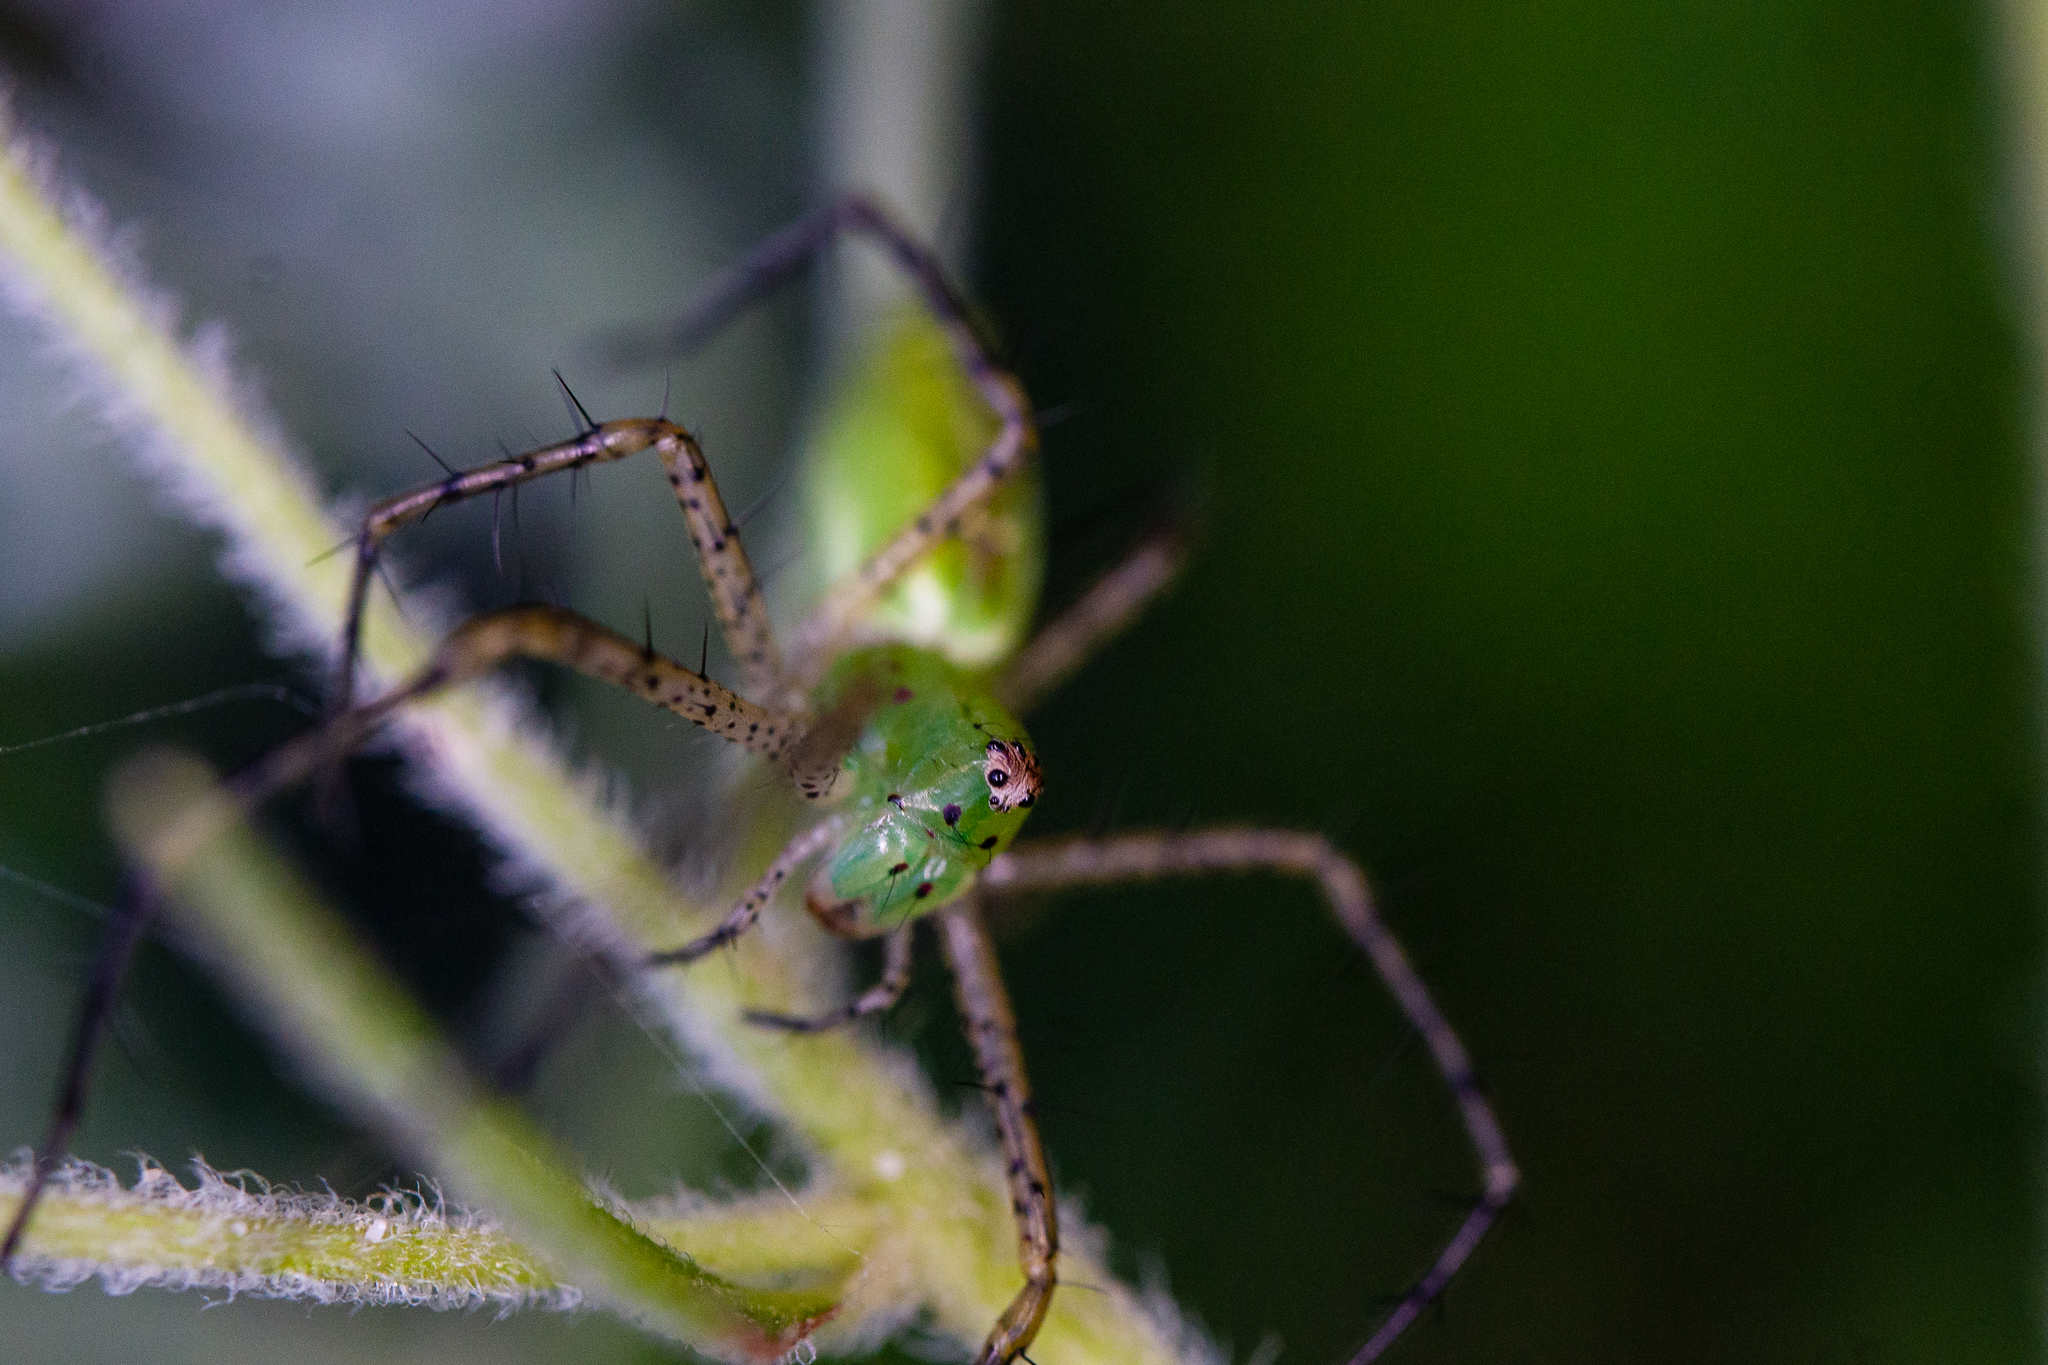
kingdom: Animalia
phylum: Arthropoda
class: Arachnida
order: Araneae
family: Oxyopidae
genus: Peucetia
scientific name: Peucetia viridans
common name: Lynx spiders
